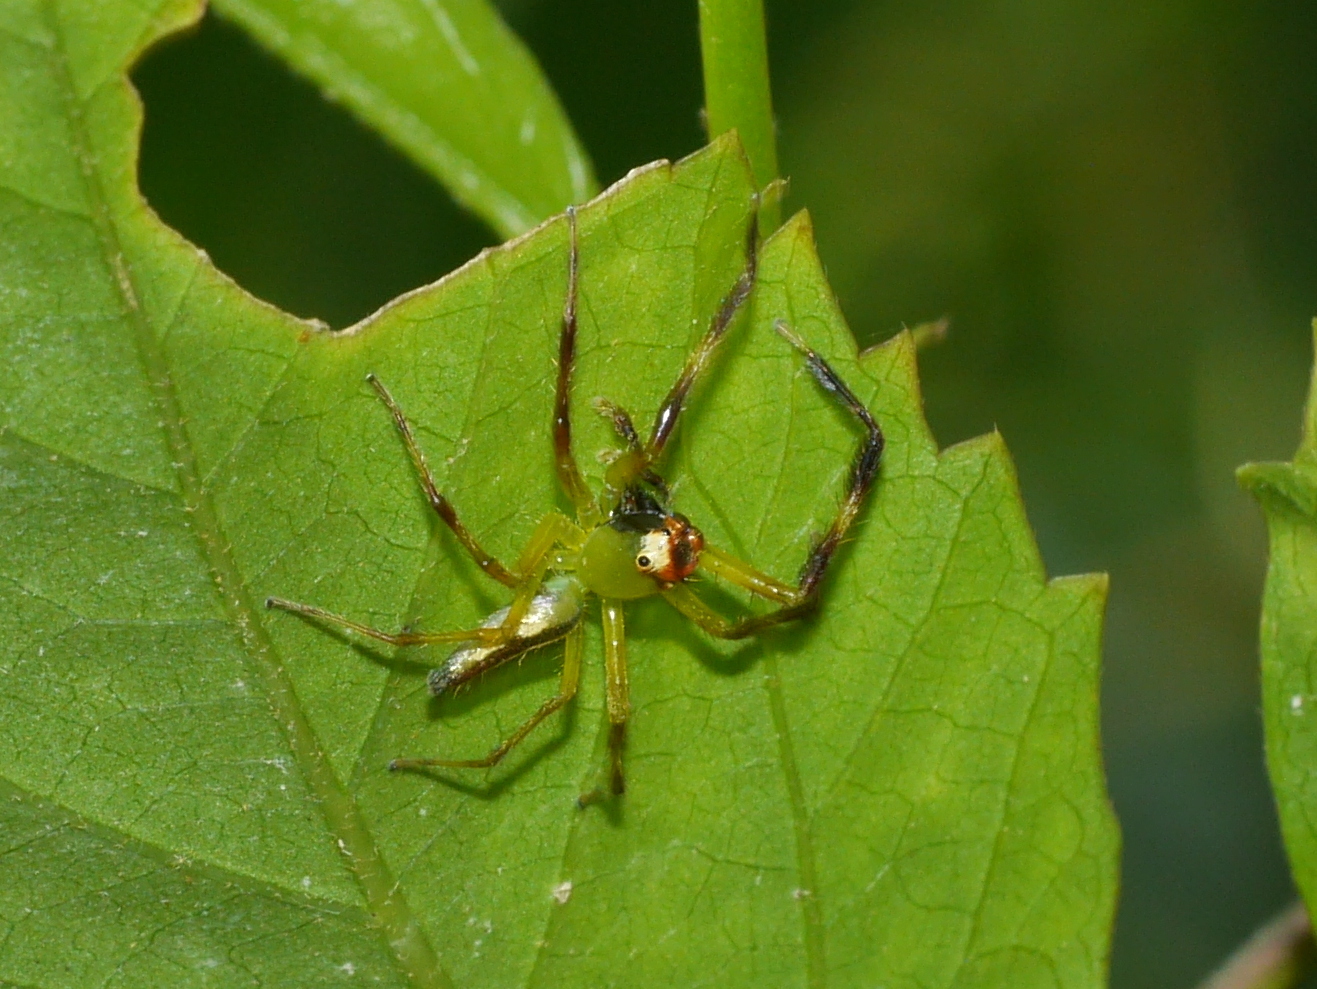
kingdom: Animalia
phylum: Arthropoda
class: Arachnida
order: Araneae
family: Salticidae
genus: Epeus
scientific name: Epeus flavobilineatus
